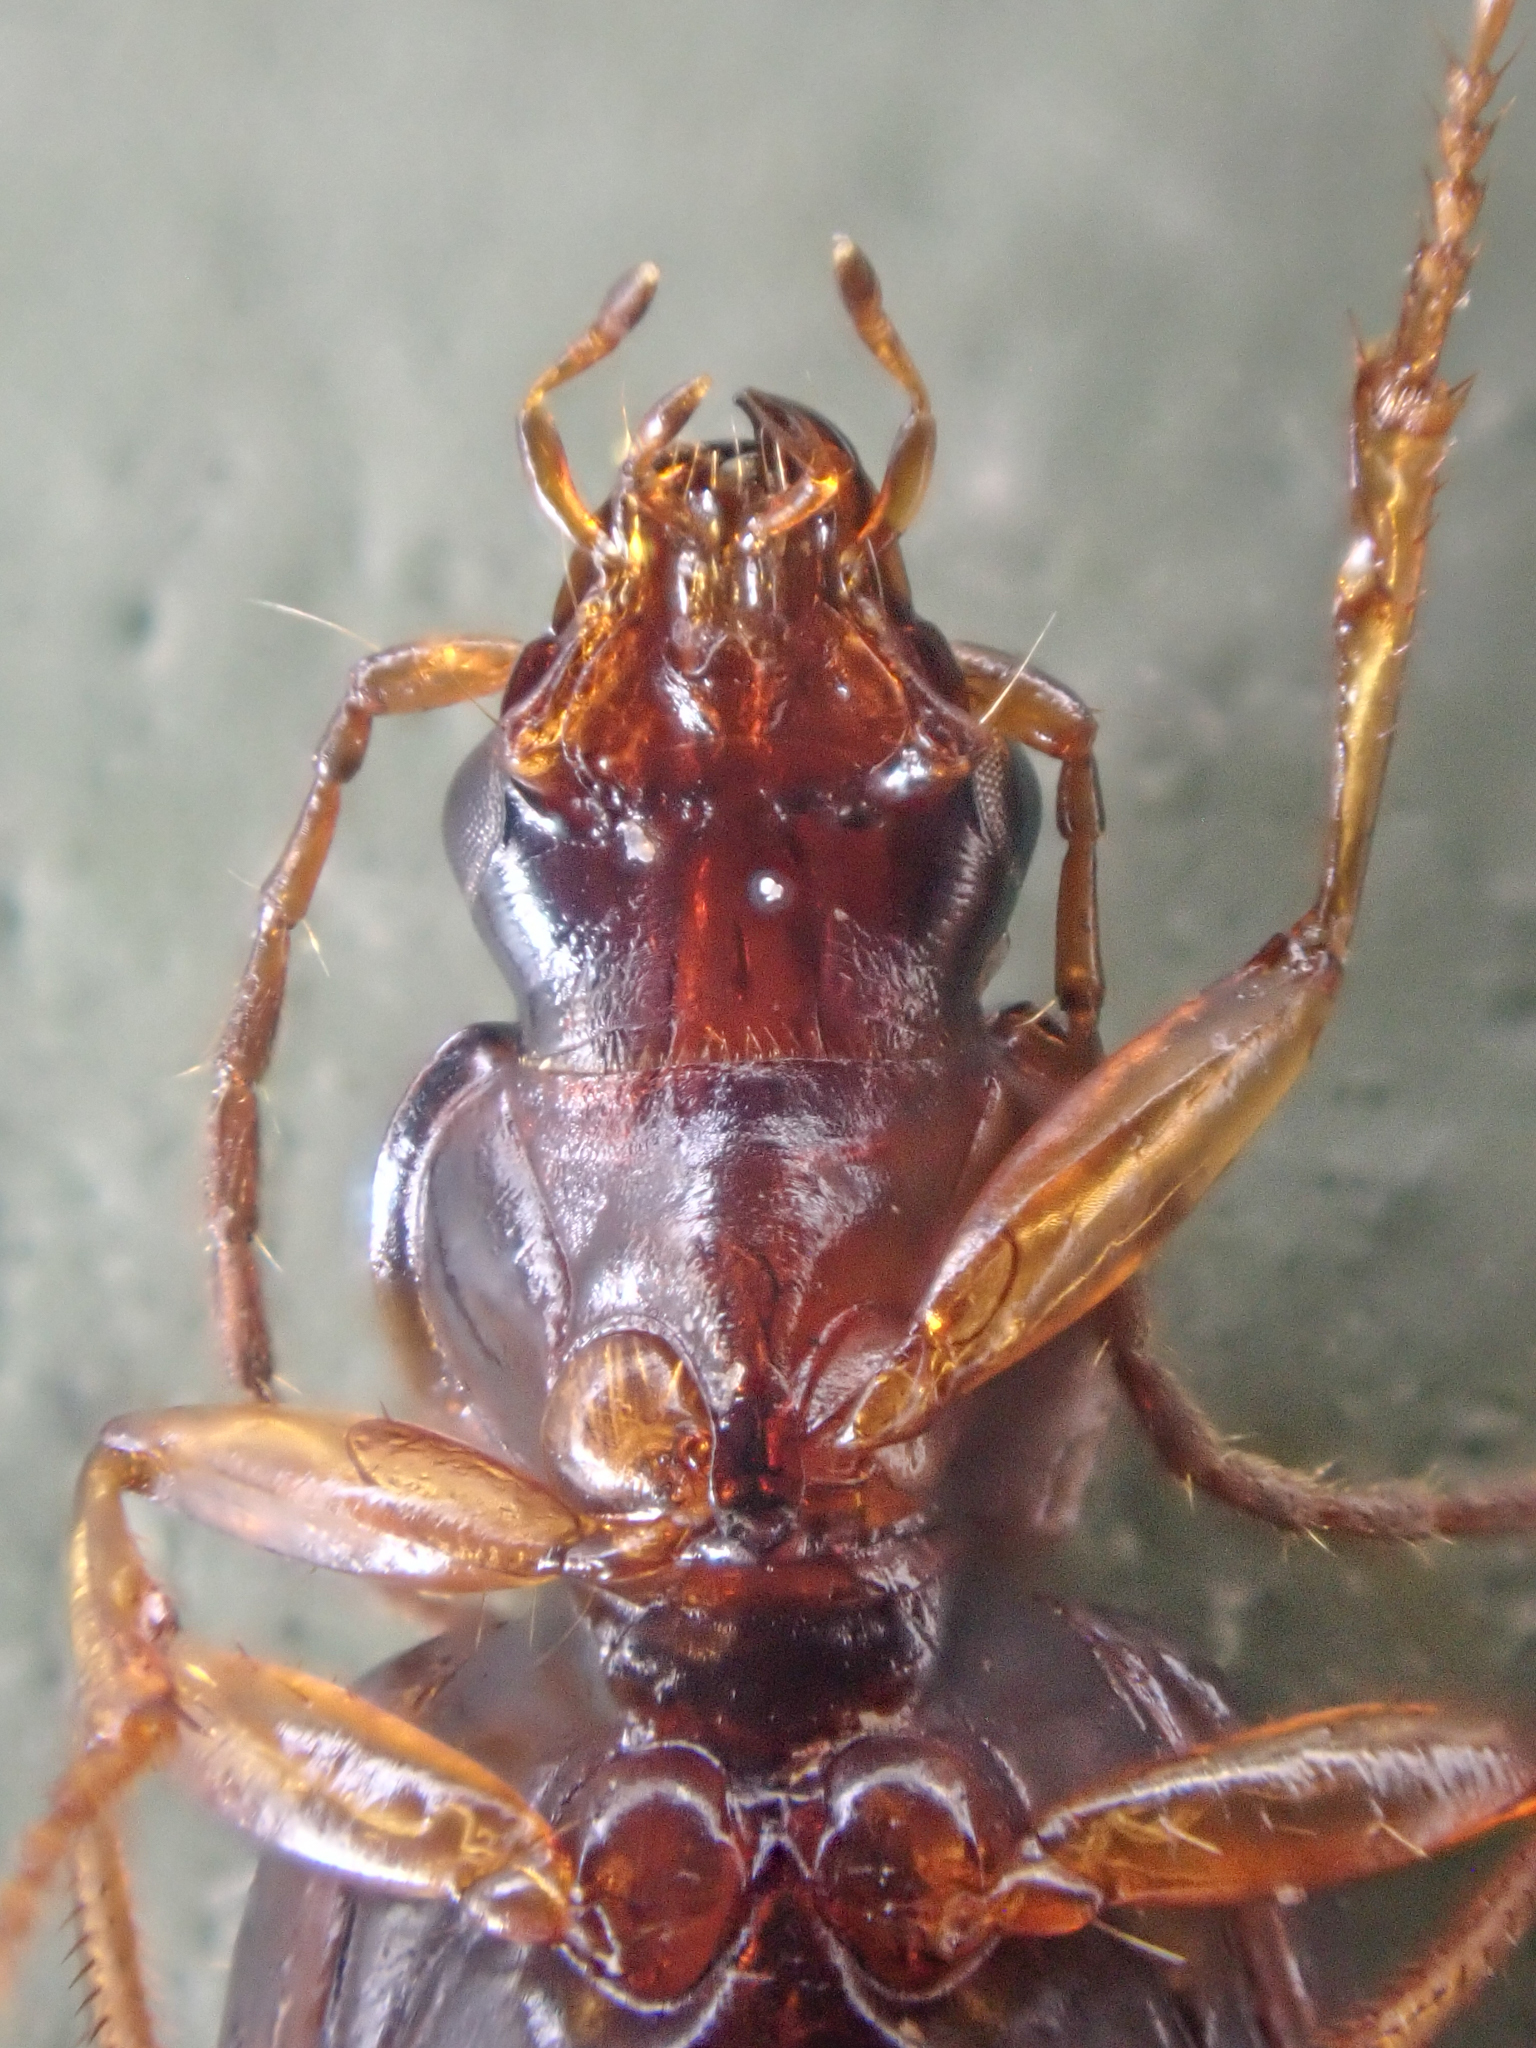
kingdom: Animalia
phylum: Arthropoda
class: Insecta
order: Coleoptera
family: Carabidae
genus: Agonum
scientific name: Agonum piceolum
